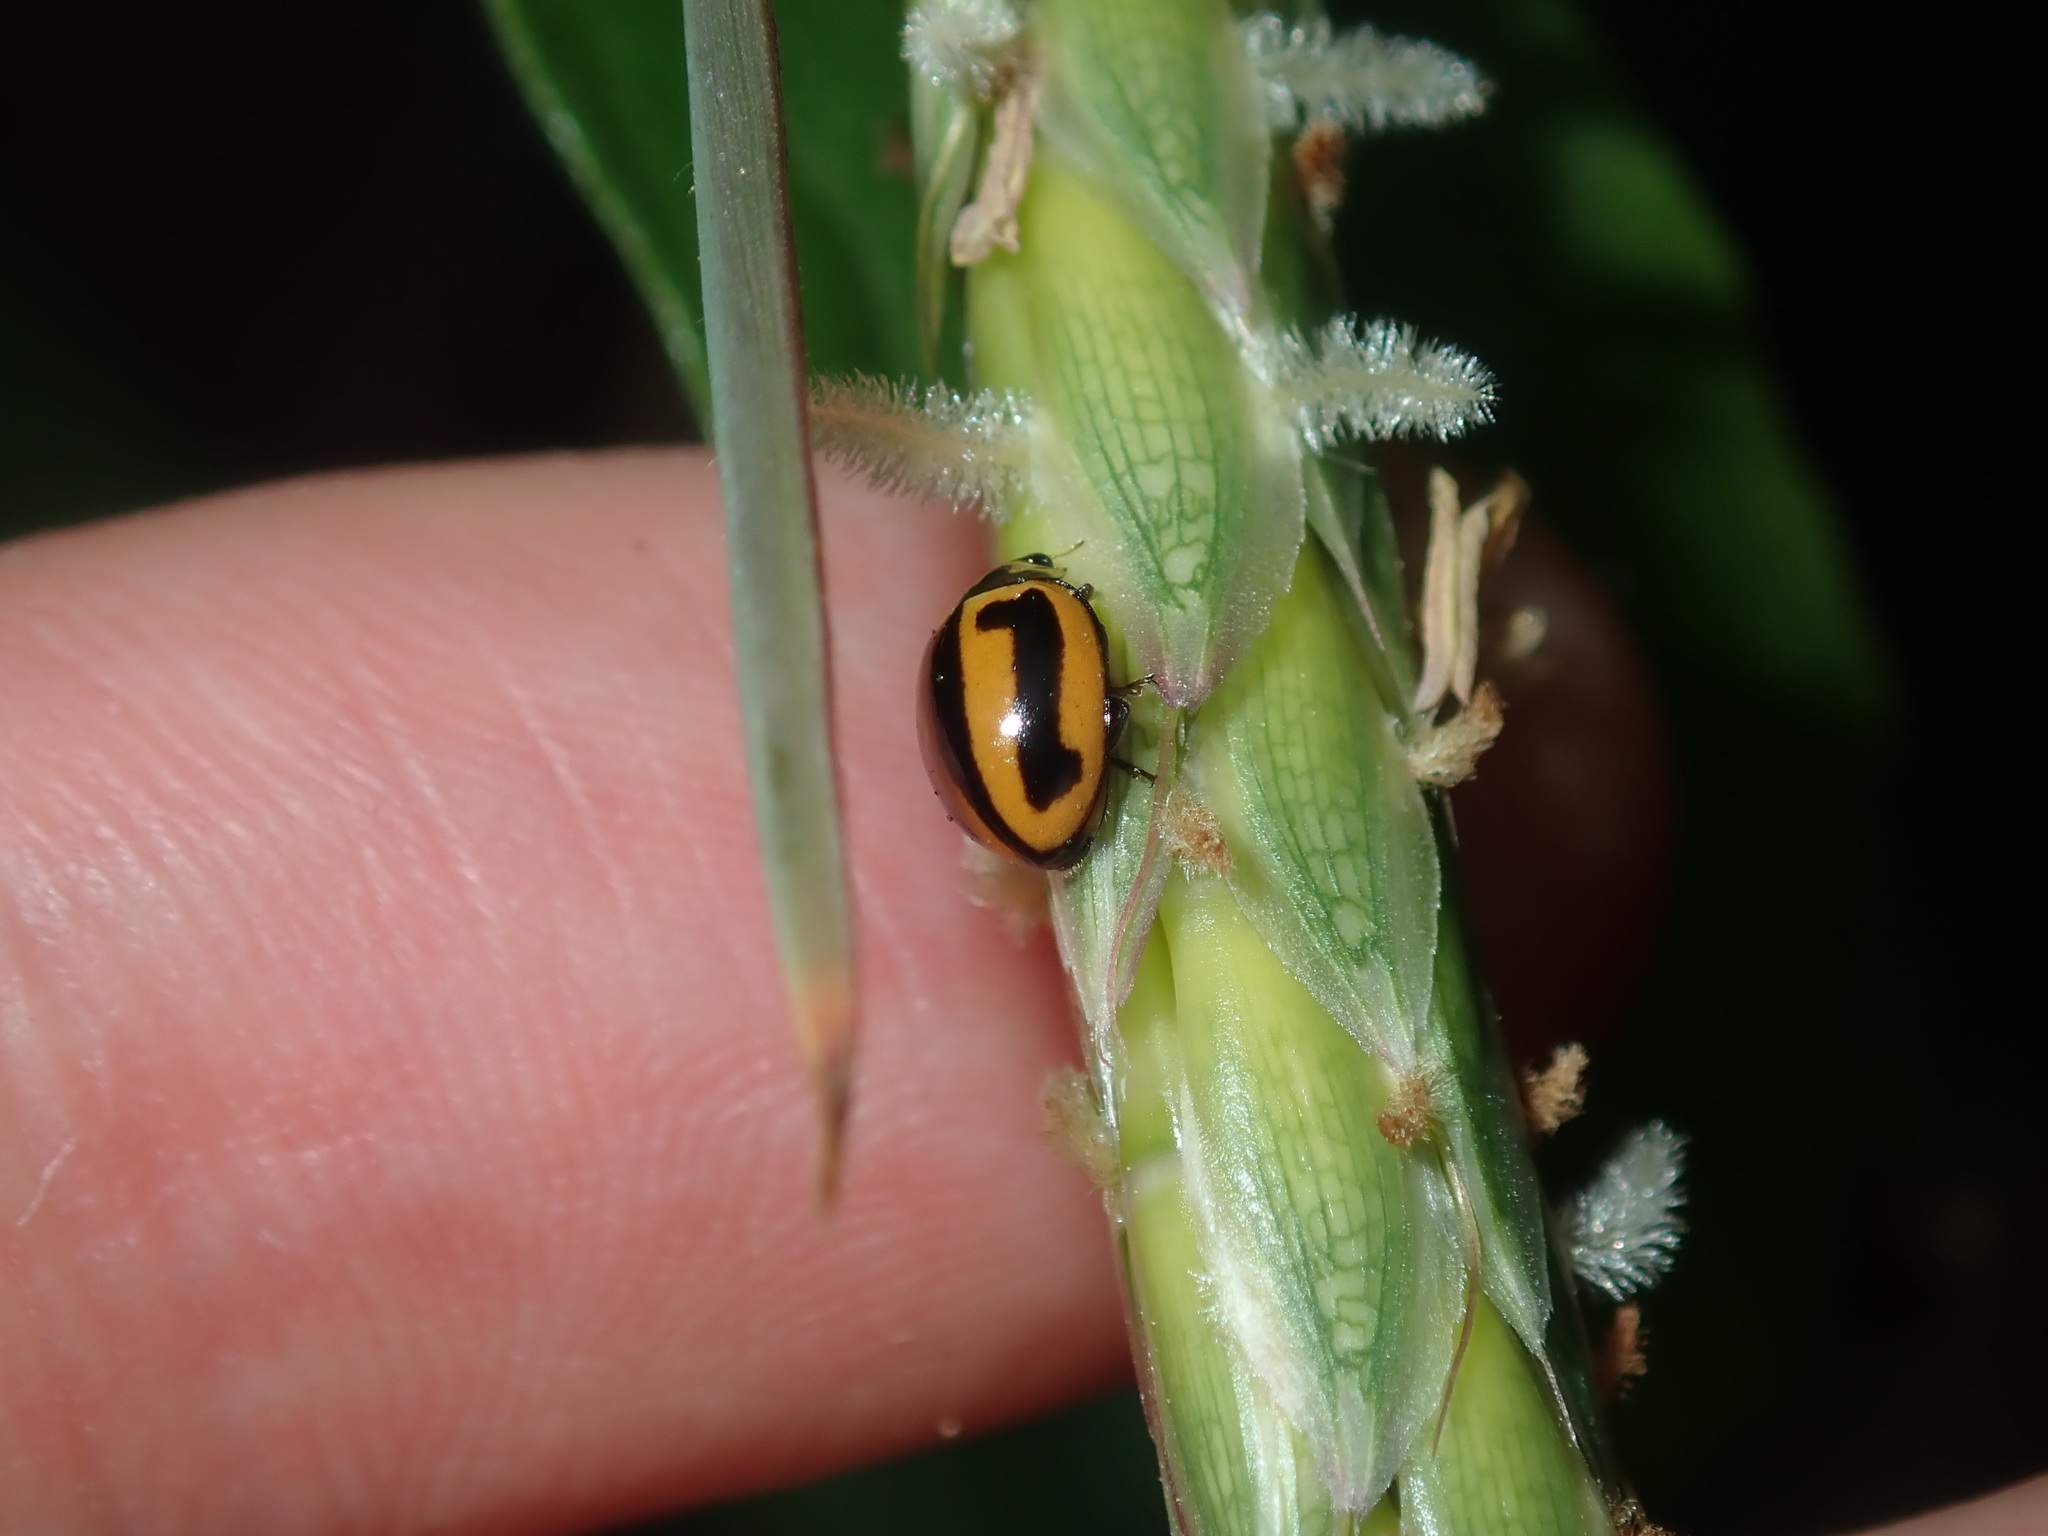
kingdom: Animalia
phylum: Arthropoda
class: Insecta
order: Coleoptera
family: Coccinellidae
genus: Micraspis
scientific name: Micraspis frenata
